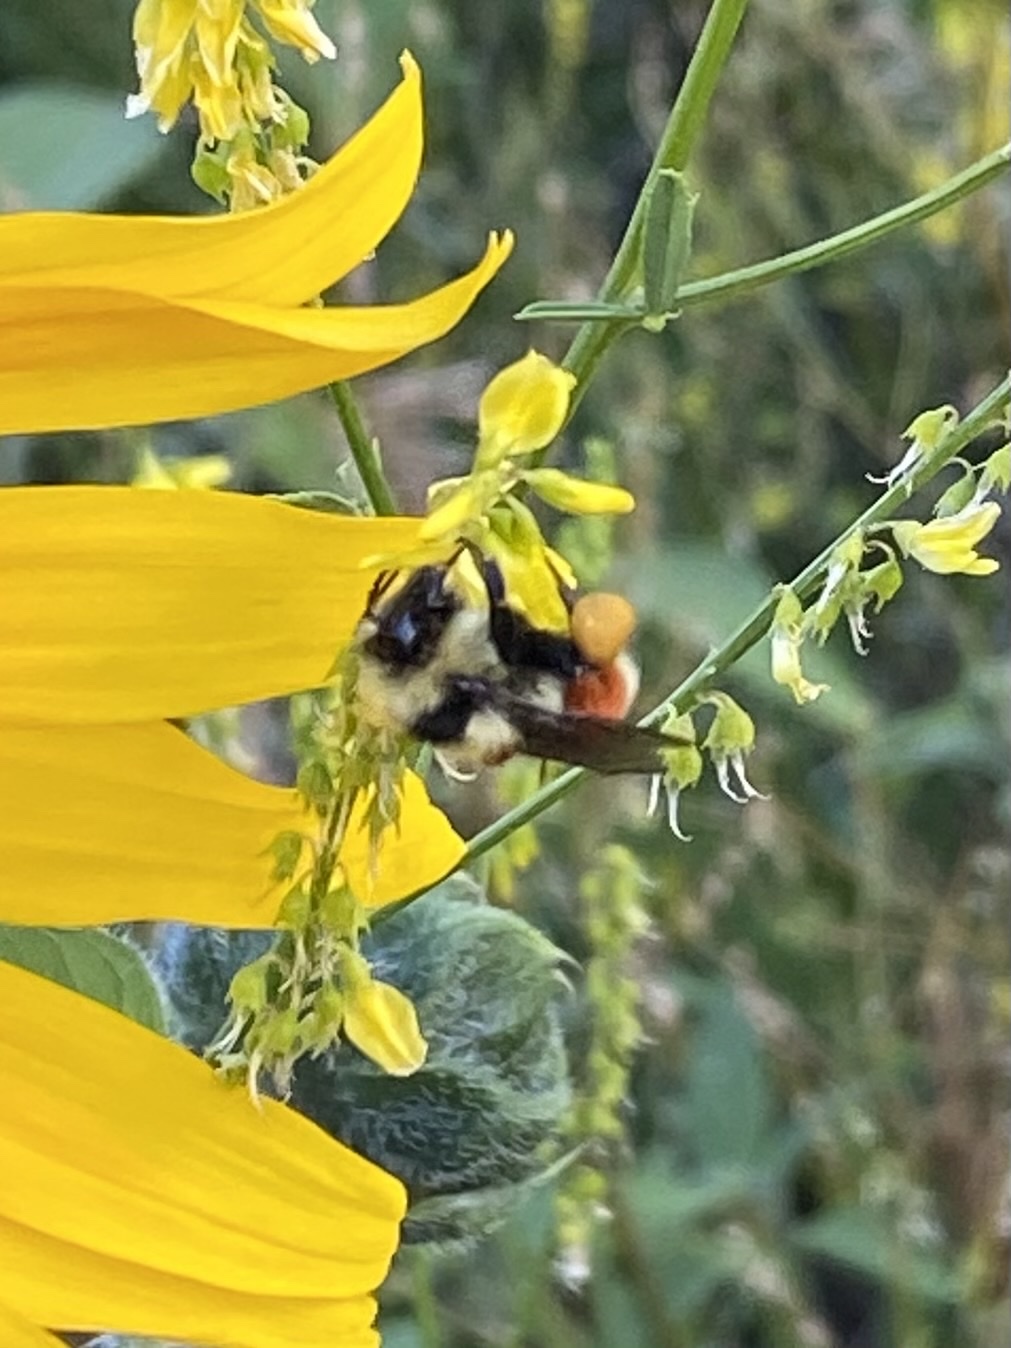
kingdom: Animalia
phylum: Arthropoda
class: Insecta
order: Hymenoptera
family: Apidae
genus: Bombus
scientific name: Bombus huntii
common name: Hunt bumble bee
